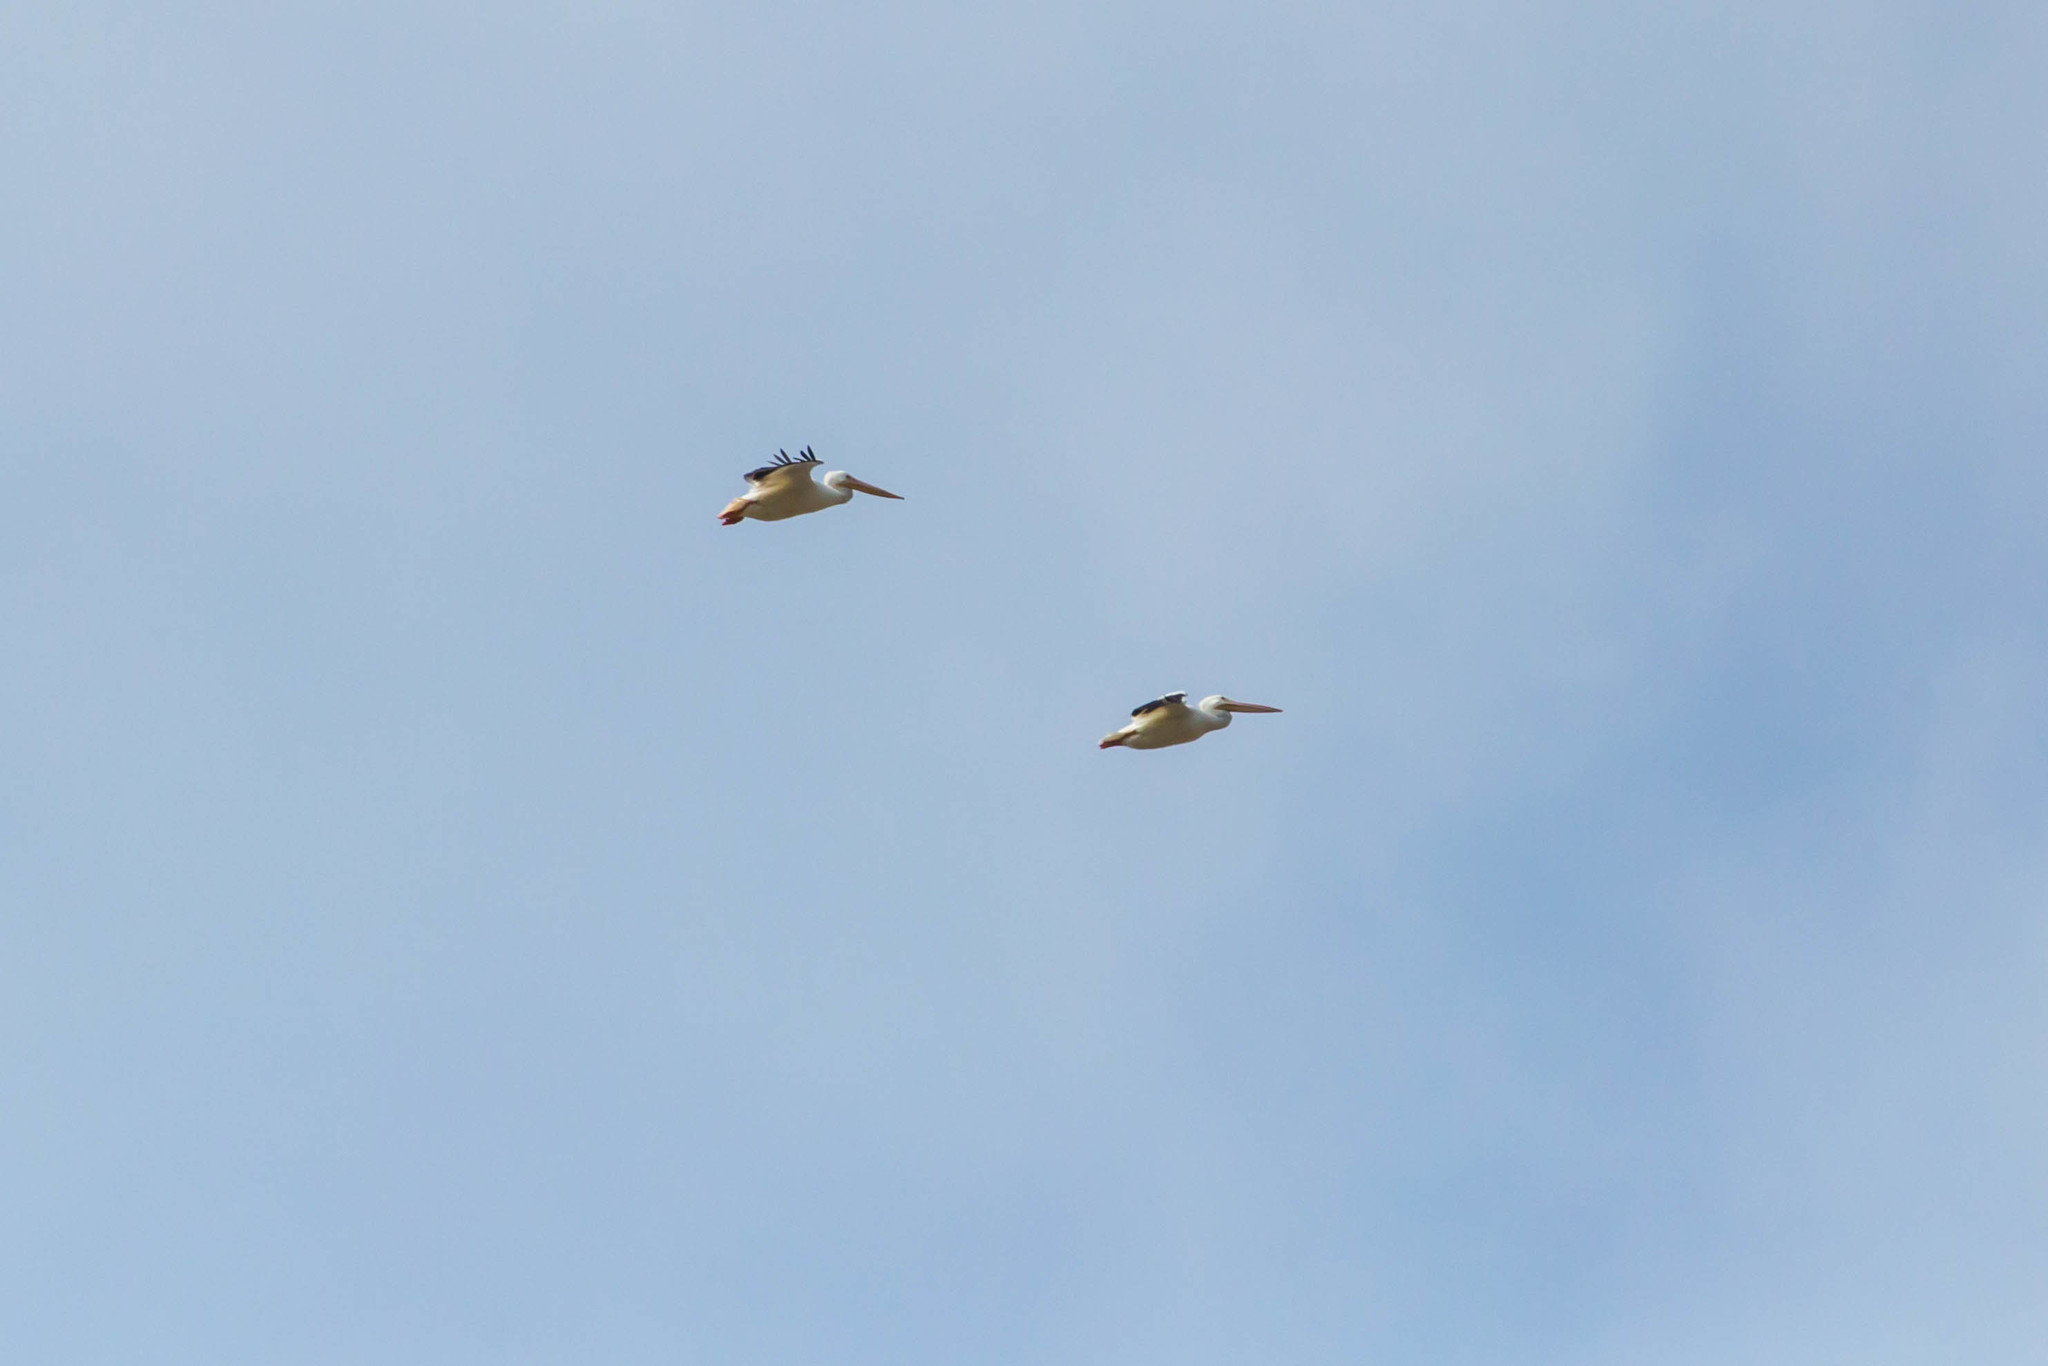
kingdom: Animalia
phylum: Chordata
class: Aves
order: Pelecaniformes
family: Pelecanidae
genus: Pelecanus
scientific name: Pelecanus erythrorhynchos
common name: American white pelican
